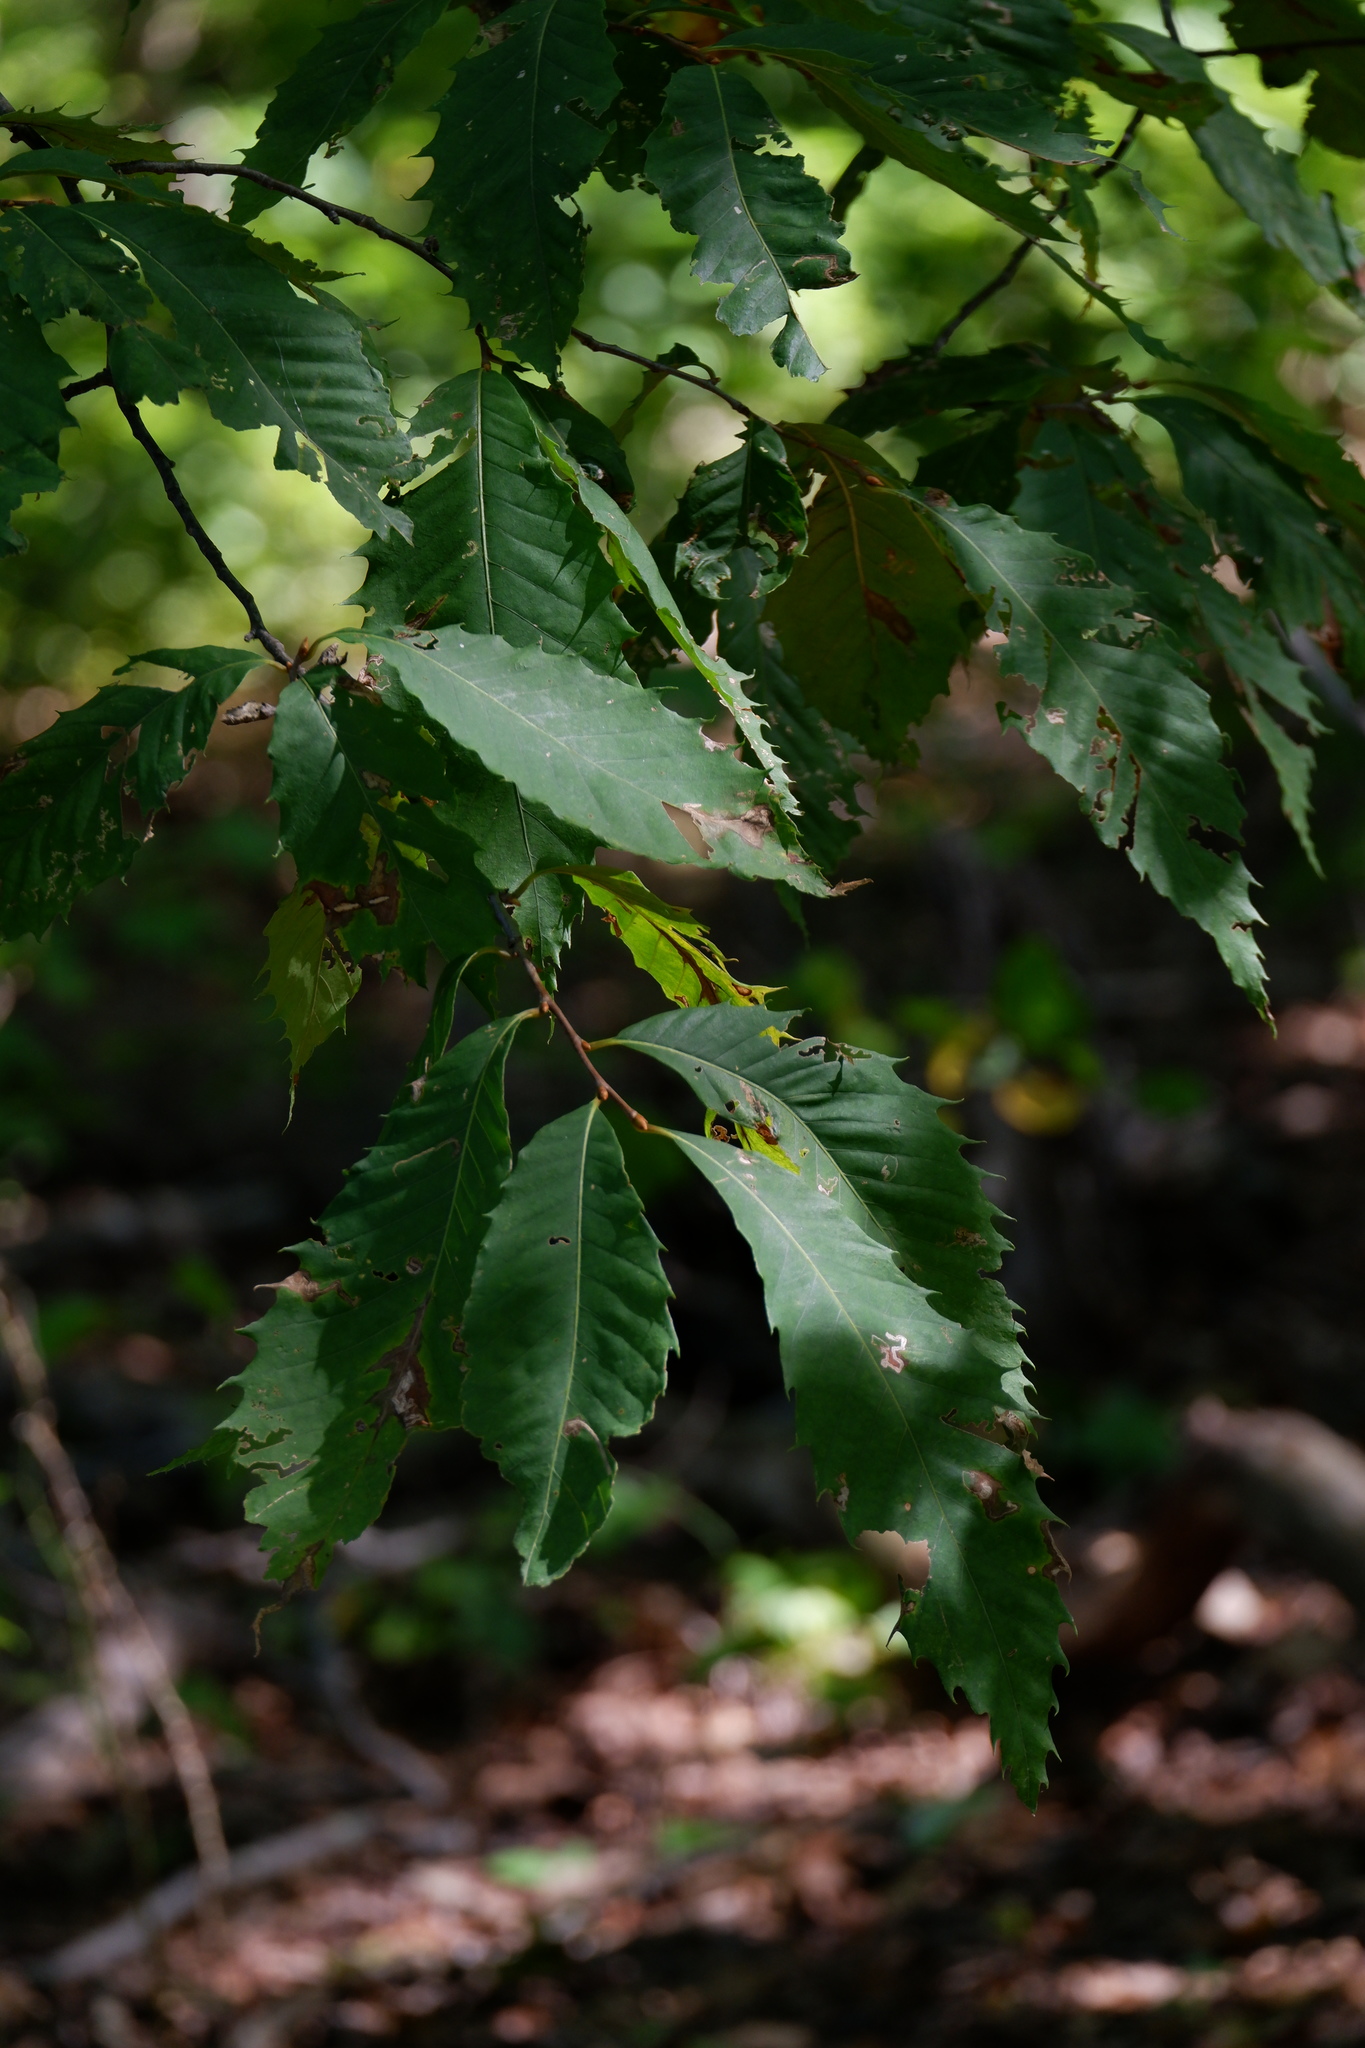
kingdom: Animalia
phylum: Arthropoda
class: Insecta
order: Hymenoptera
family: Cynipidae
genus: Dryocosmus
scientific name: Dryocosmus kuriphilus
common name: Asian chestnut gall wasp
